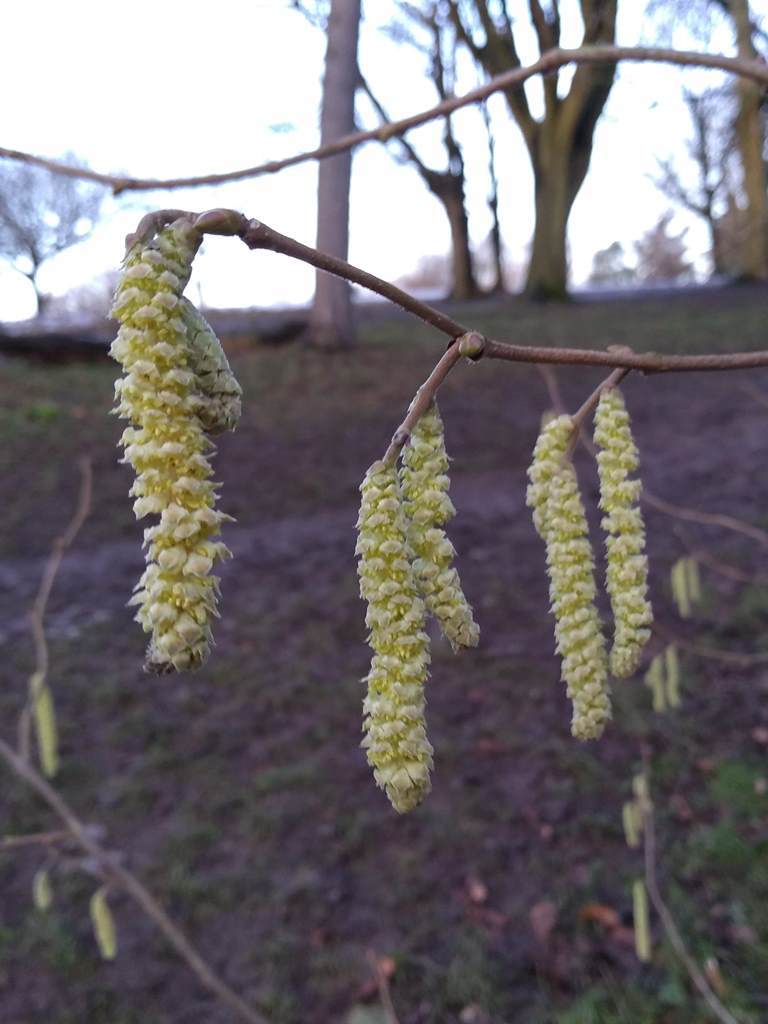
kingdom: Plantae
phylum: Tracheophyta
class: Magnoliopsida
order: Fagales
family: Betulaceae
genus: Corylus
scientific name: Corylus avellana
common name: European hazel
